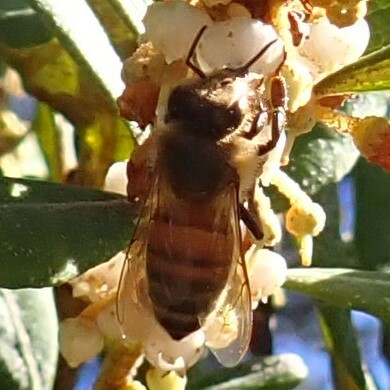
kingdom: Animalia
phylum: Arthropoda
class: Insecta
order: Hymenoptera
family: Apidae
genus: Apis
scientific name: Apis mellifera
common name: Honey bee
